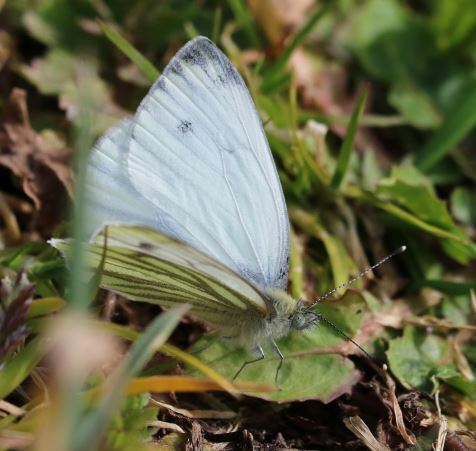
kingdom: Animalia
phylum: Arthropoda
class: Insecta
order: Lepidoptera
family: Pieridae
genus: Pieris
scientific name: Pieris napi
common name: Green-veined white
